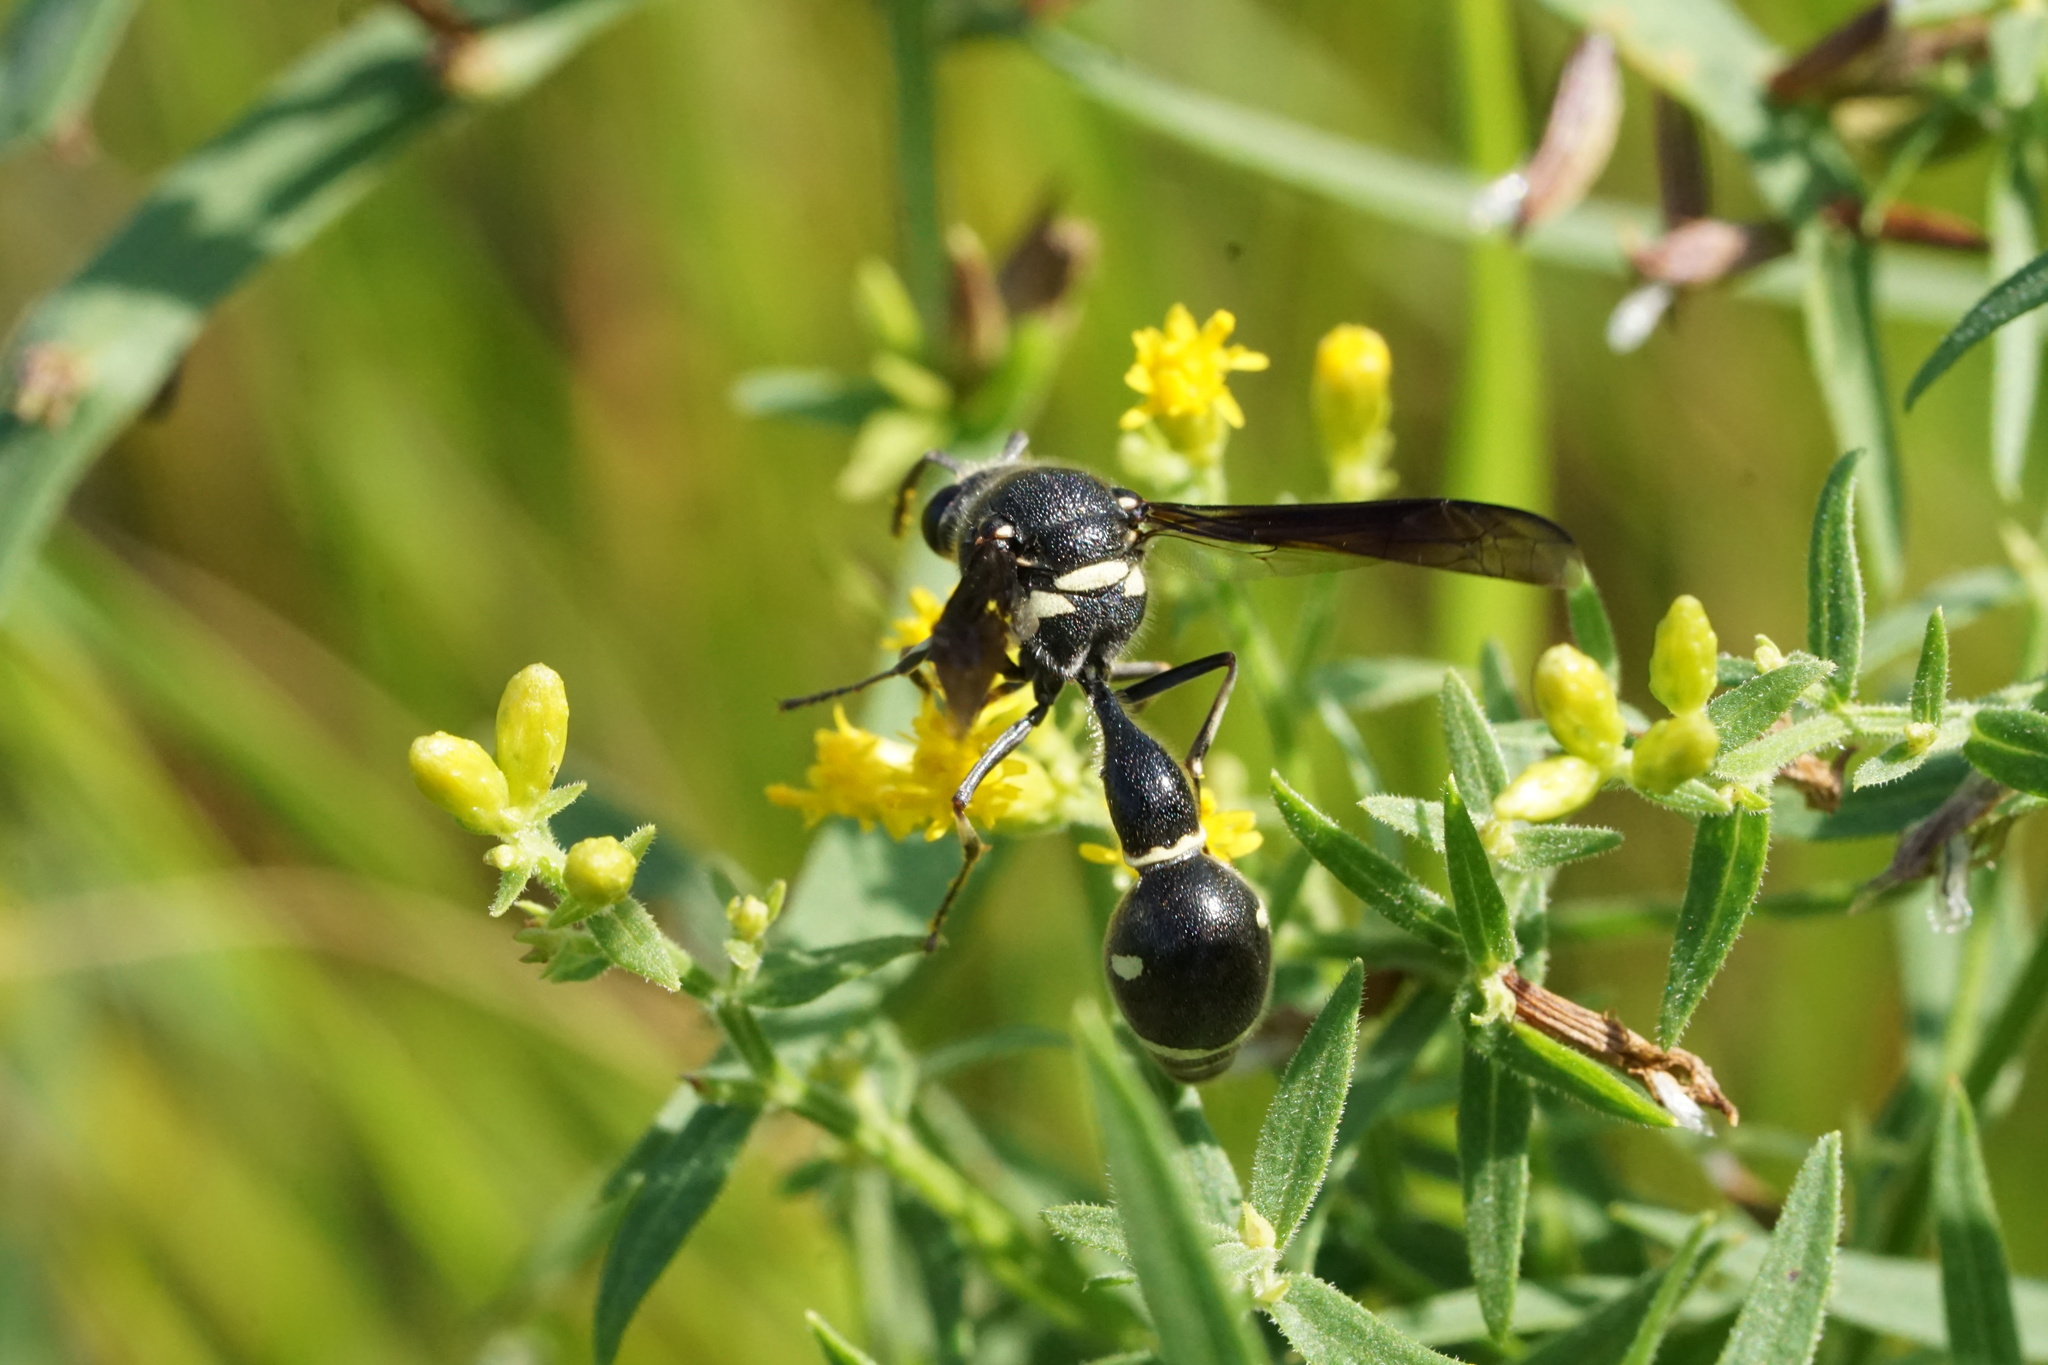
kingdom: Animalia
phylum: Arthropoda
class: Insecta
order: Hymenoptera
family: Vespidae
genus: Eumenes
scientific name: Eumenes fraternus
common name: Fraternal potter wasp
